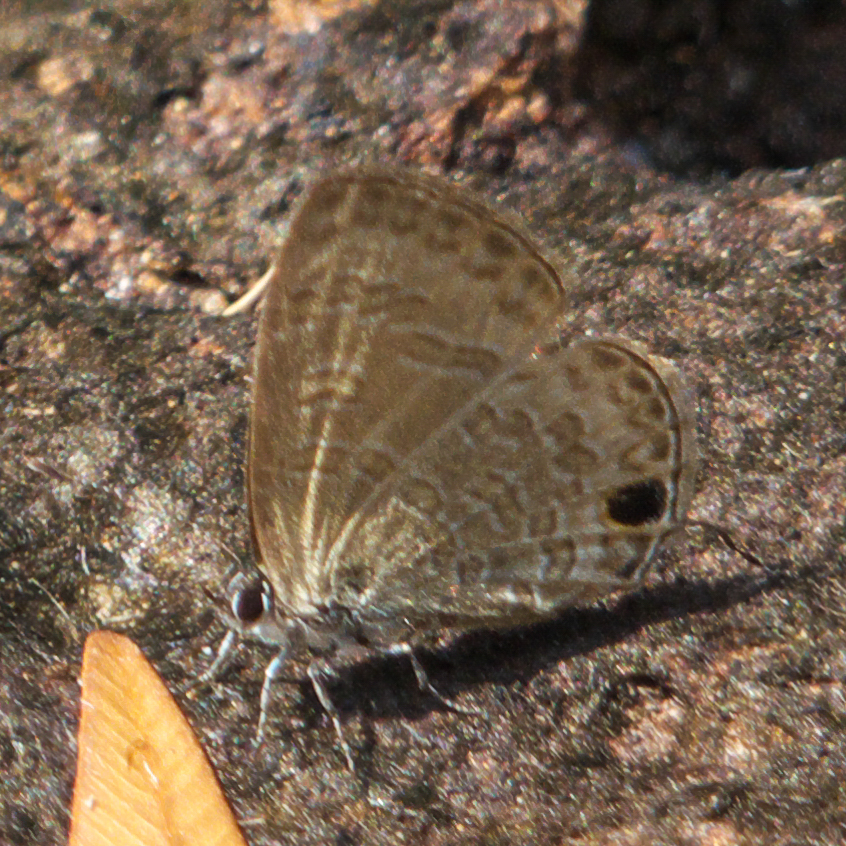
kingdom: Animalia
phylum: Arthropoda
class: Insecta
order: Lepidoptera
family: Lycaenidae
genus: Prosotas
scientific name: Prosotas nora
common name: Common line blue
